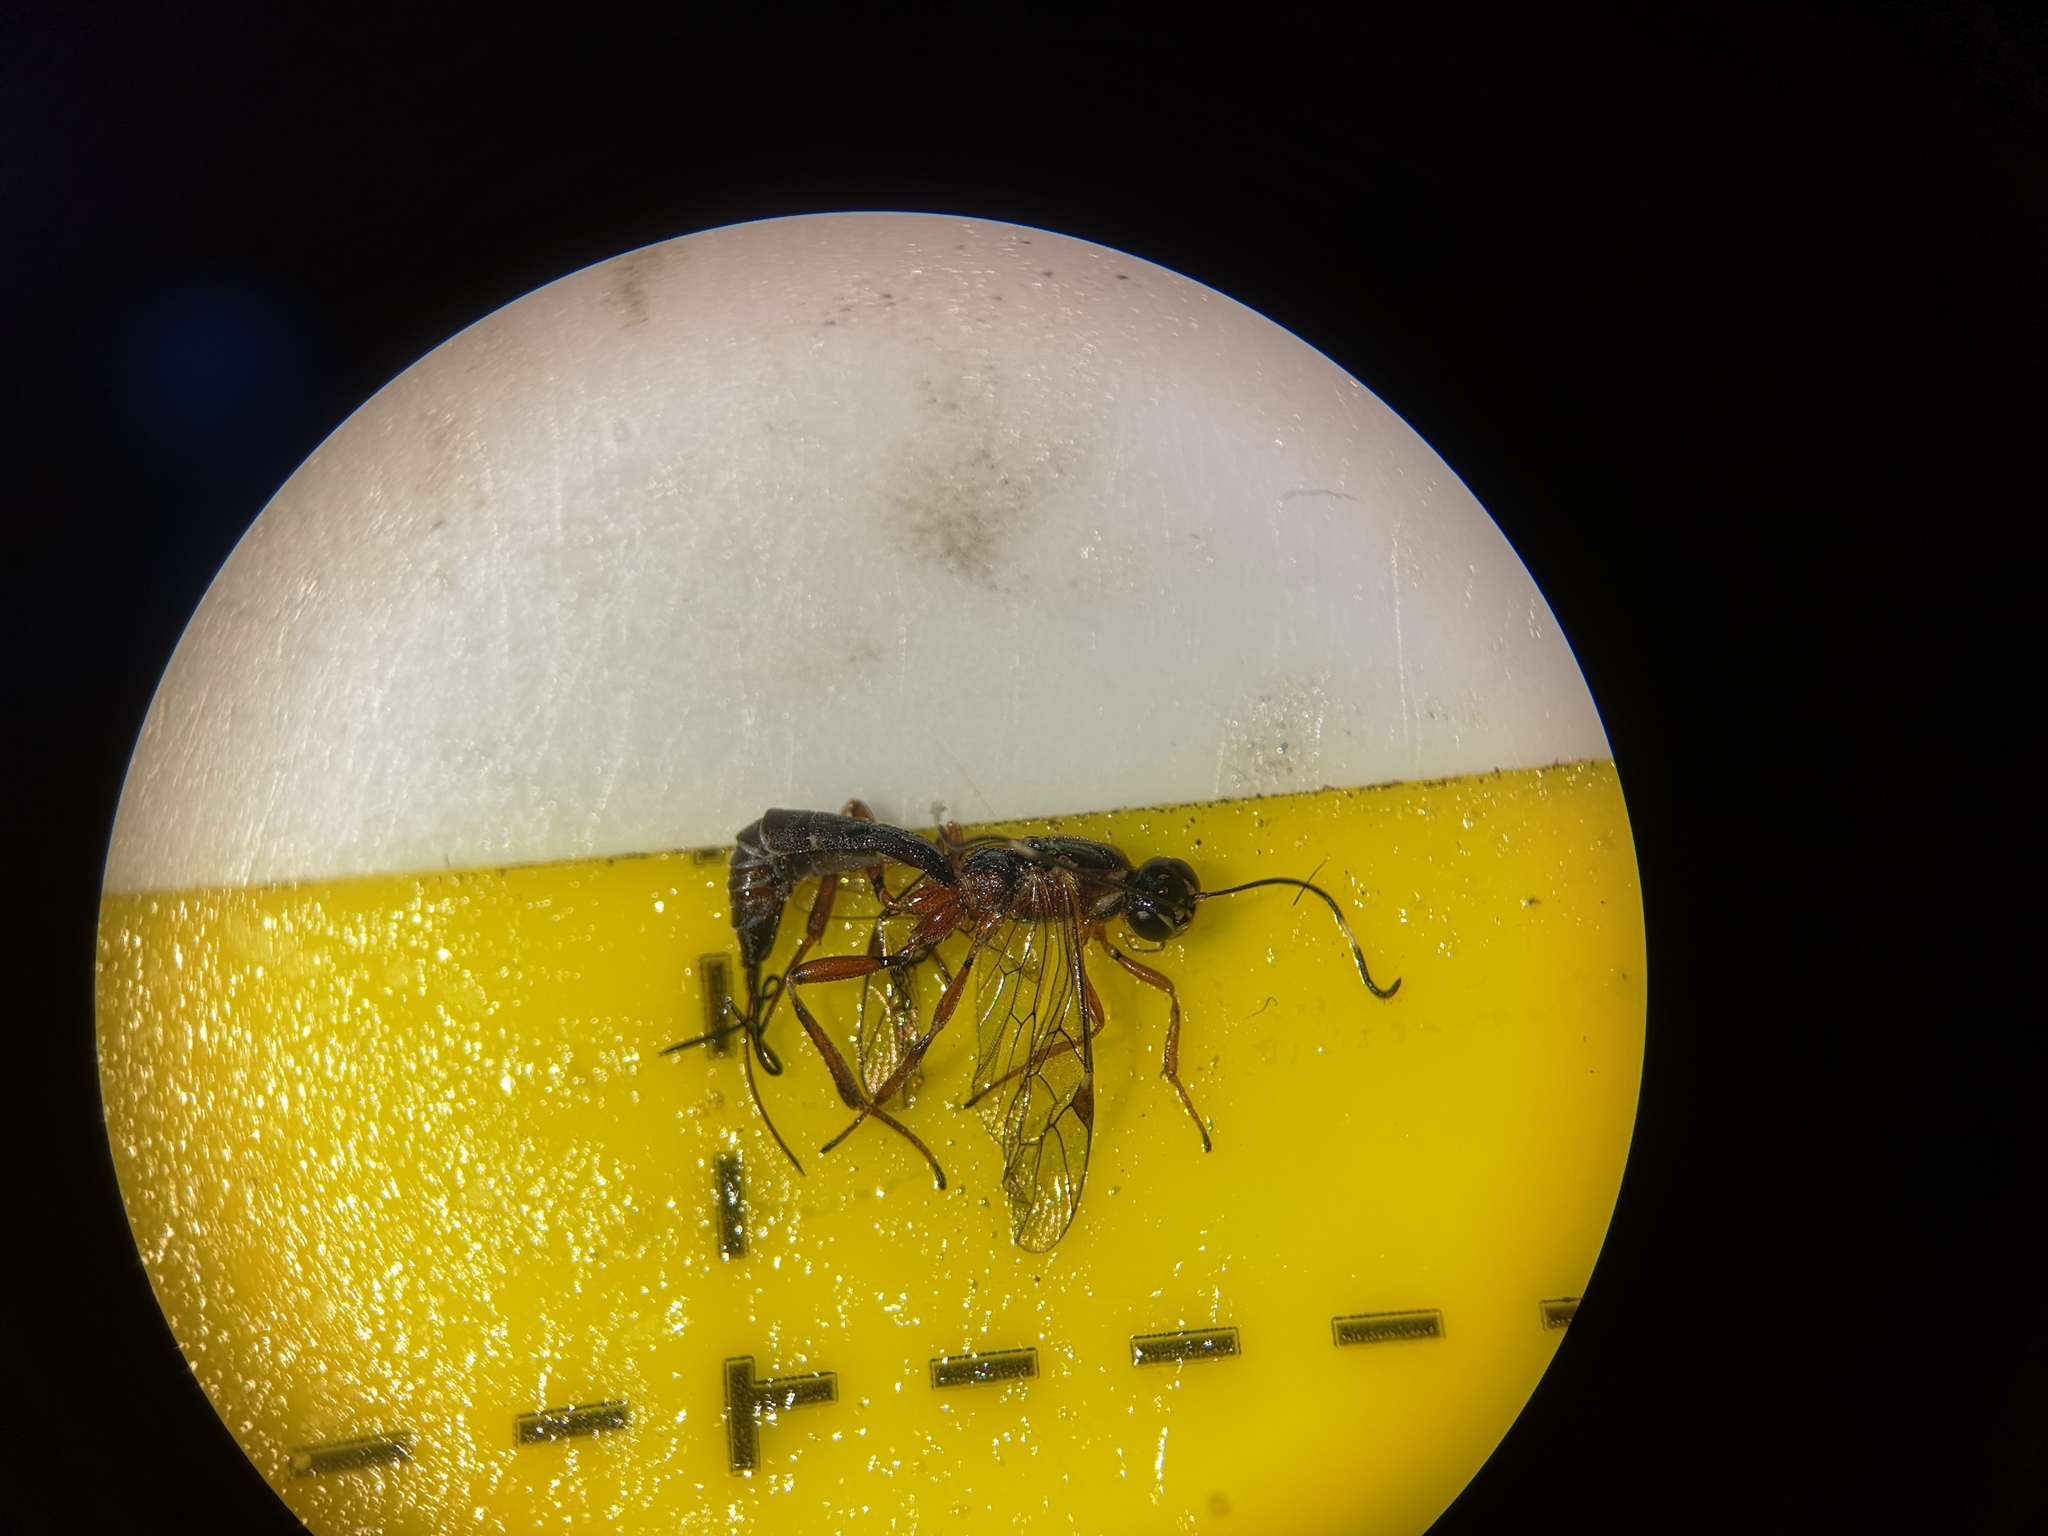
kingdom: Animalia
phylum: Arthropoda
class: Insecta
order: Hymenoptera
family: Ichneumonidae
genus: Xorides
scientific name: Xorides praecatorius
